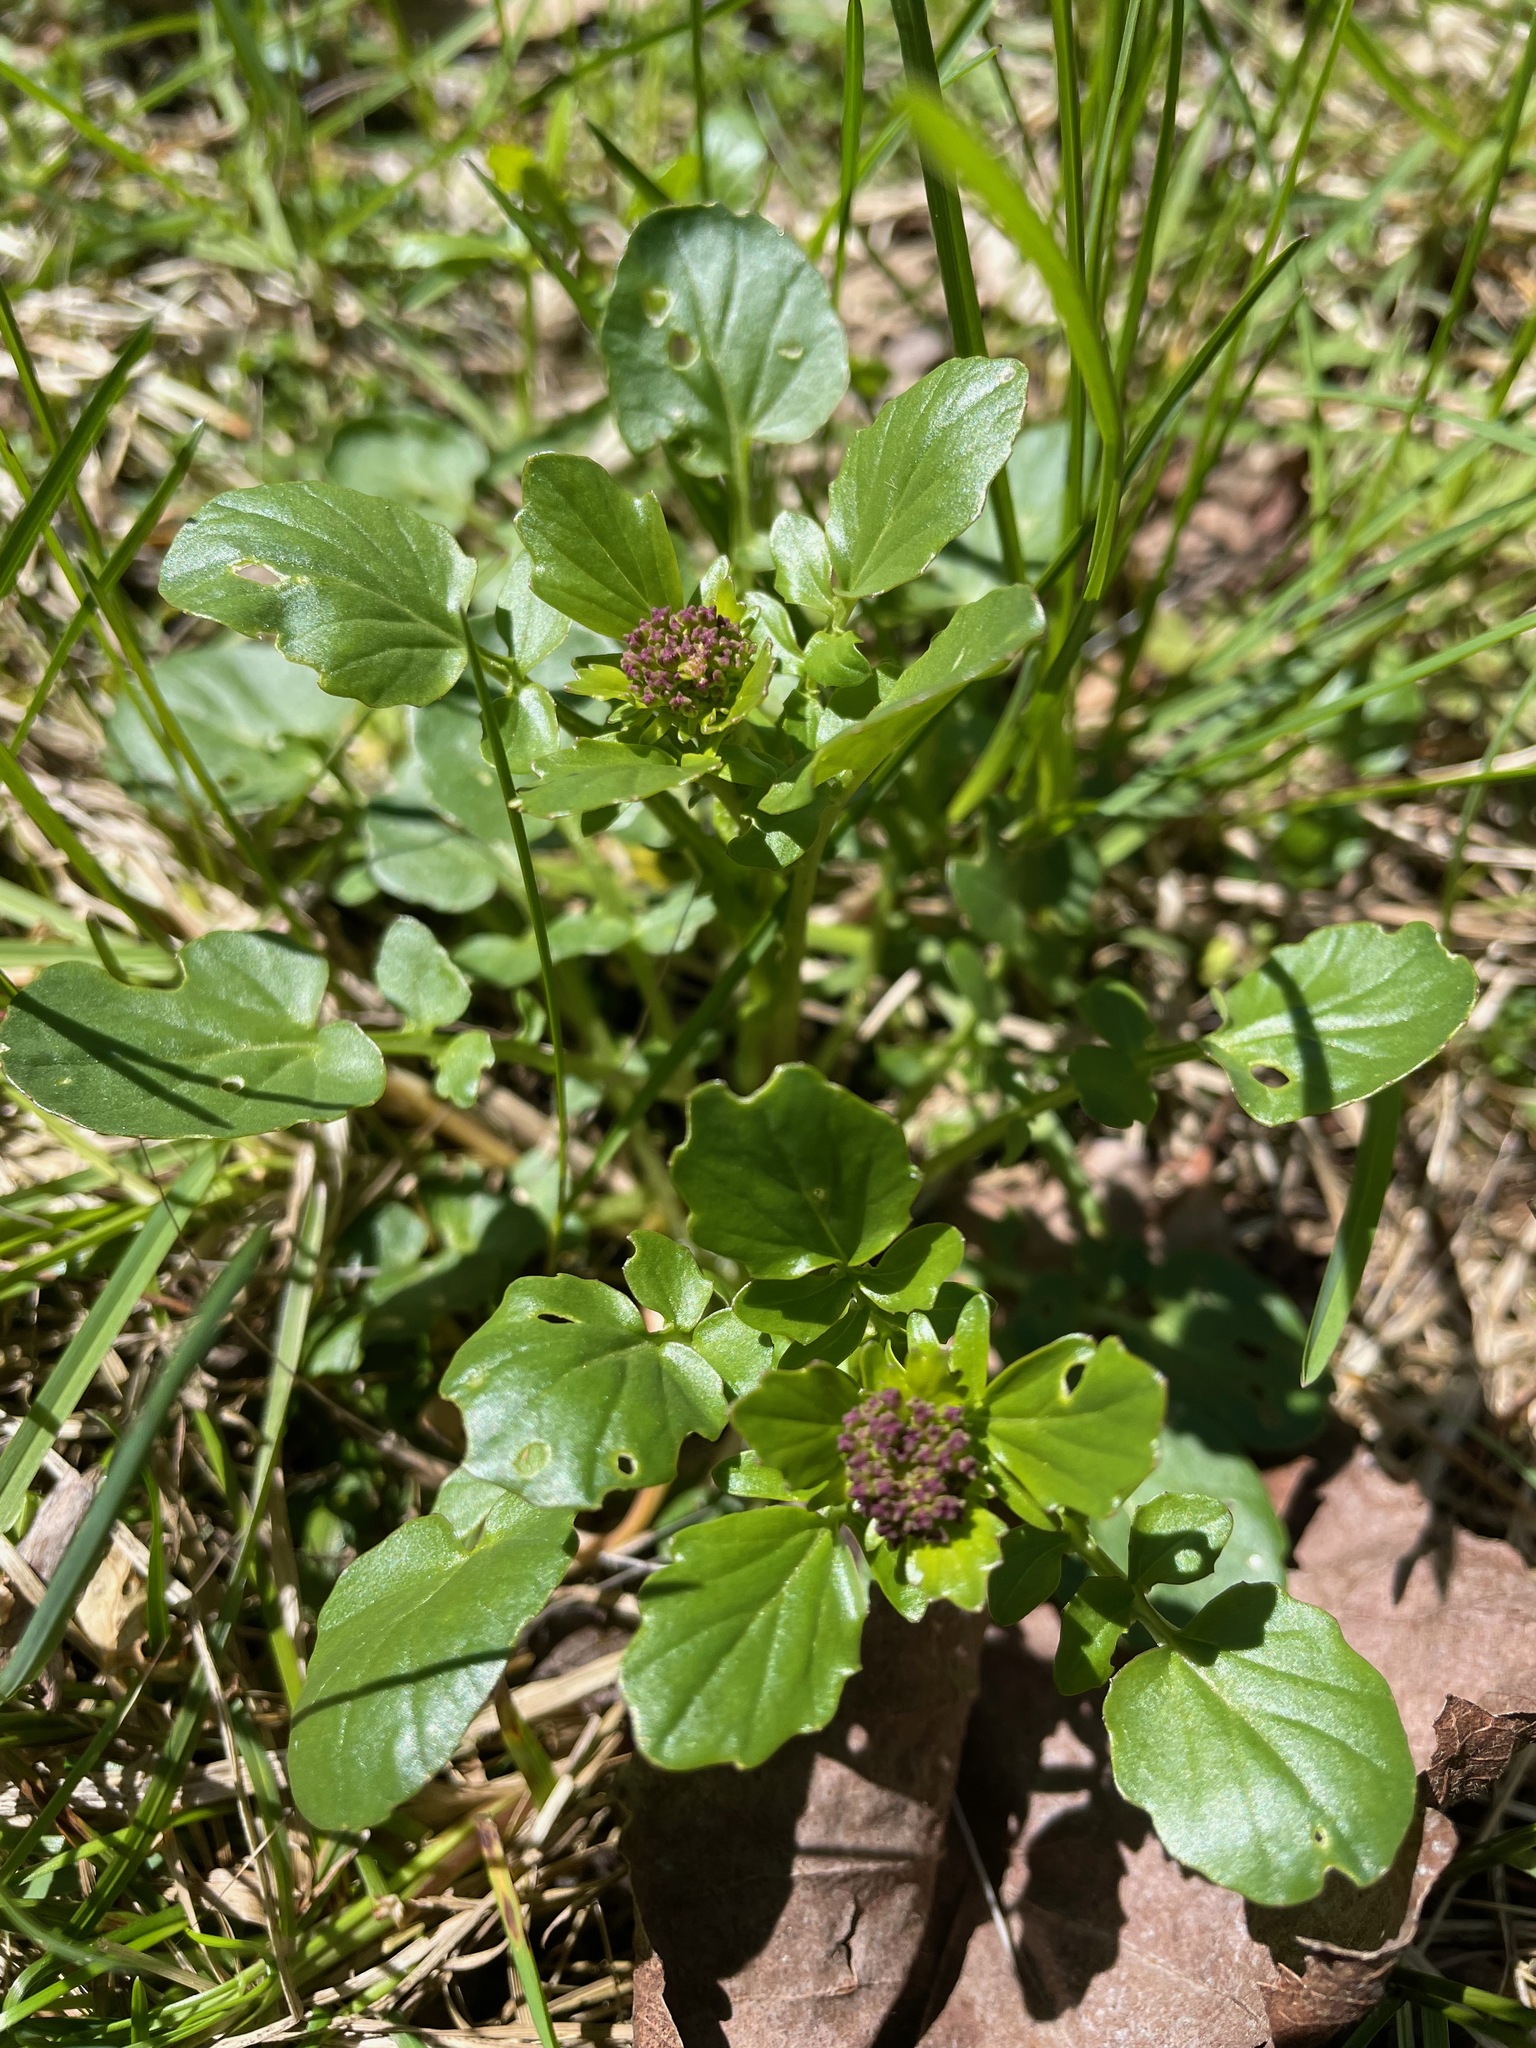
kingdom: Plantae
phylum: Tracheophyta
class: Magnoliopsida
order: Brassicales
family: Brassicaceae
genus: Barbarea
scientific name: Barbarea vulgaris
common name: Cressy-greens
